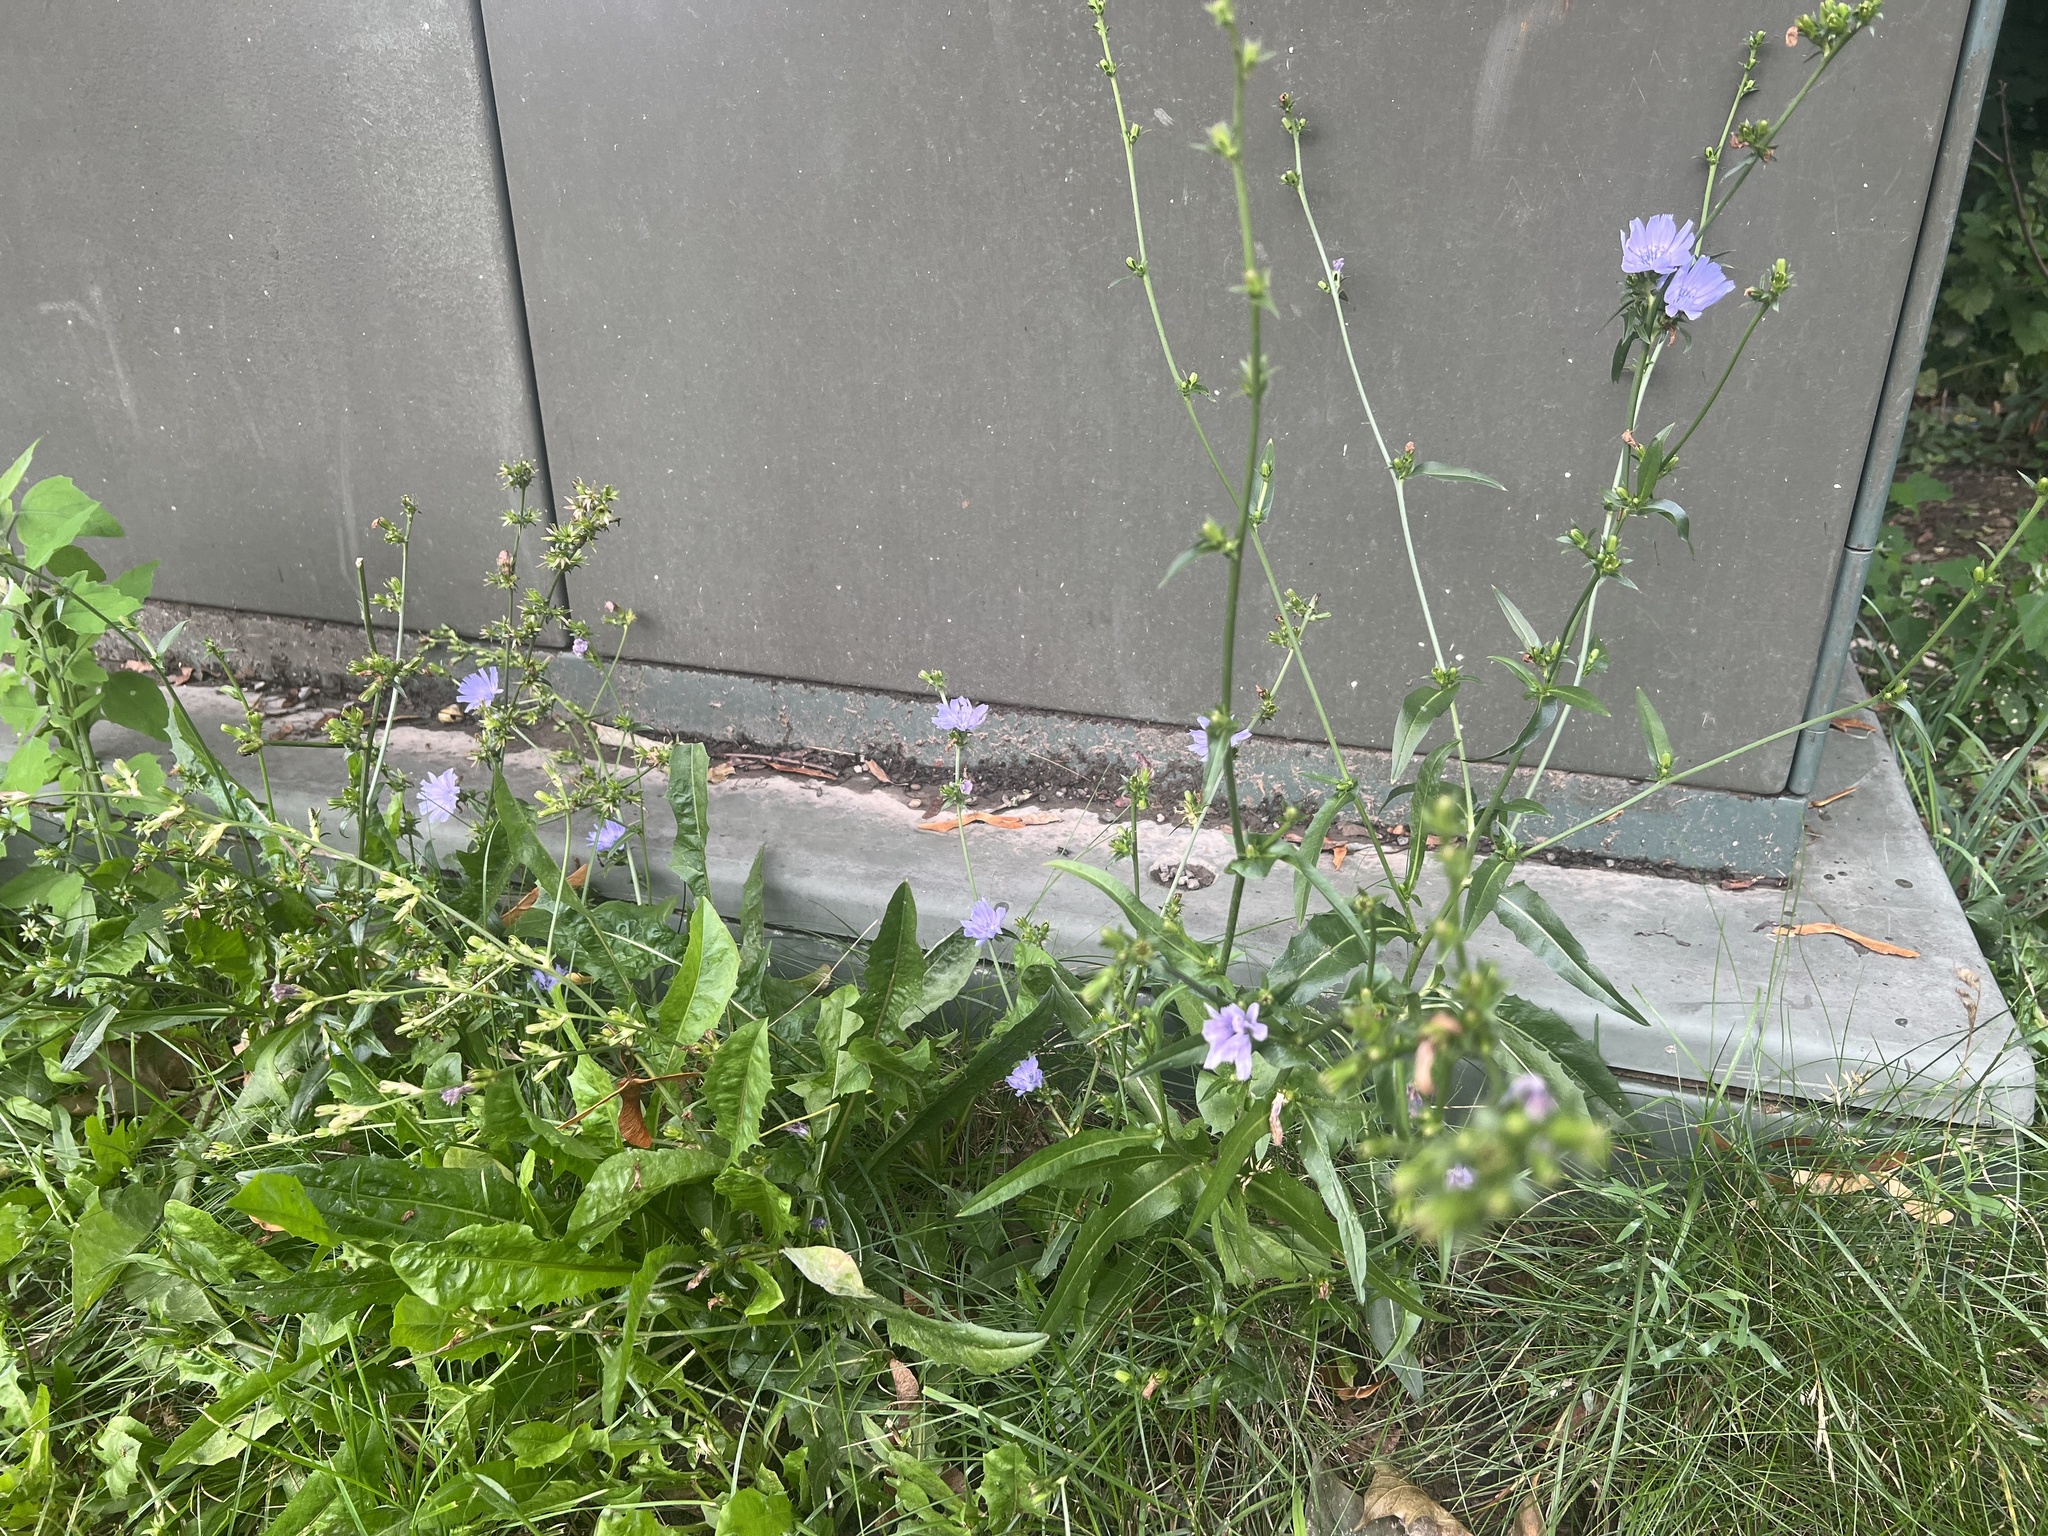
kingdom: Plantae
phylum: Tracheophyta
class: Magnoliopsida
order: Asterales
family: Asteraceae
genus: Cichorium
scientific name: Cichorium intybus
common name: Chicory
